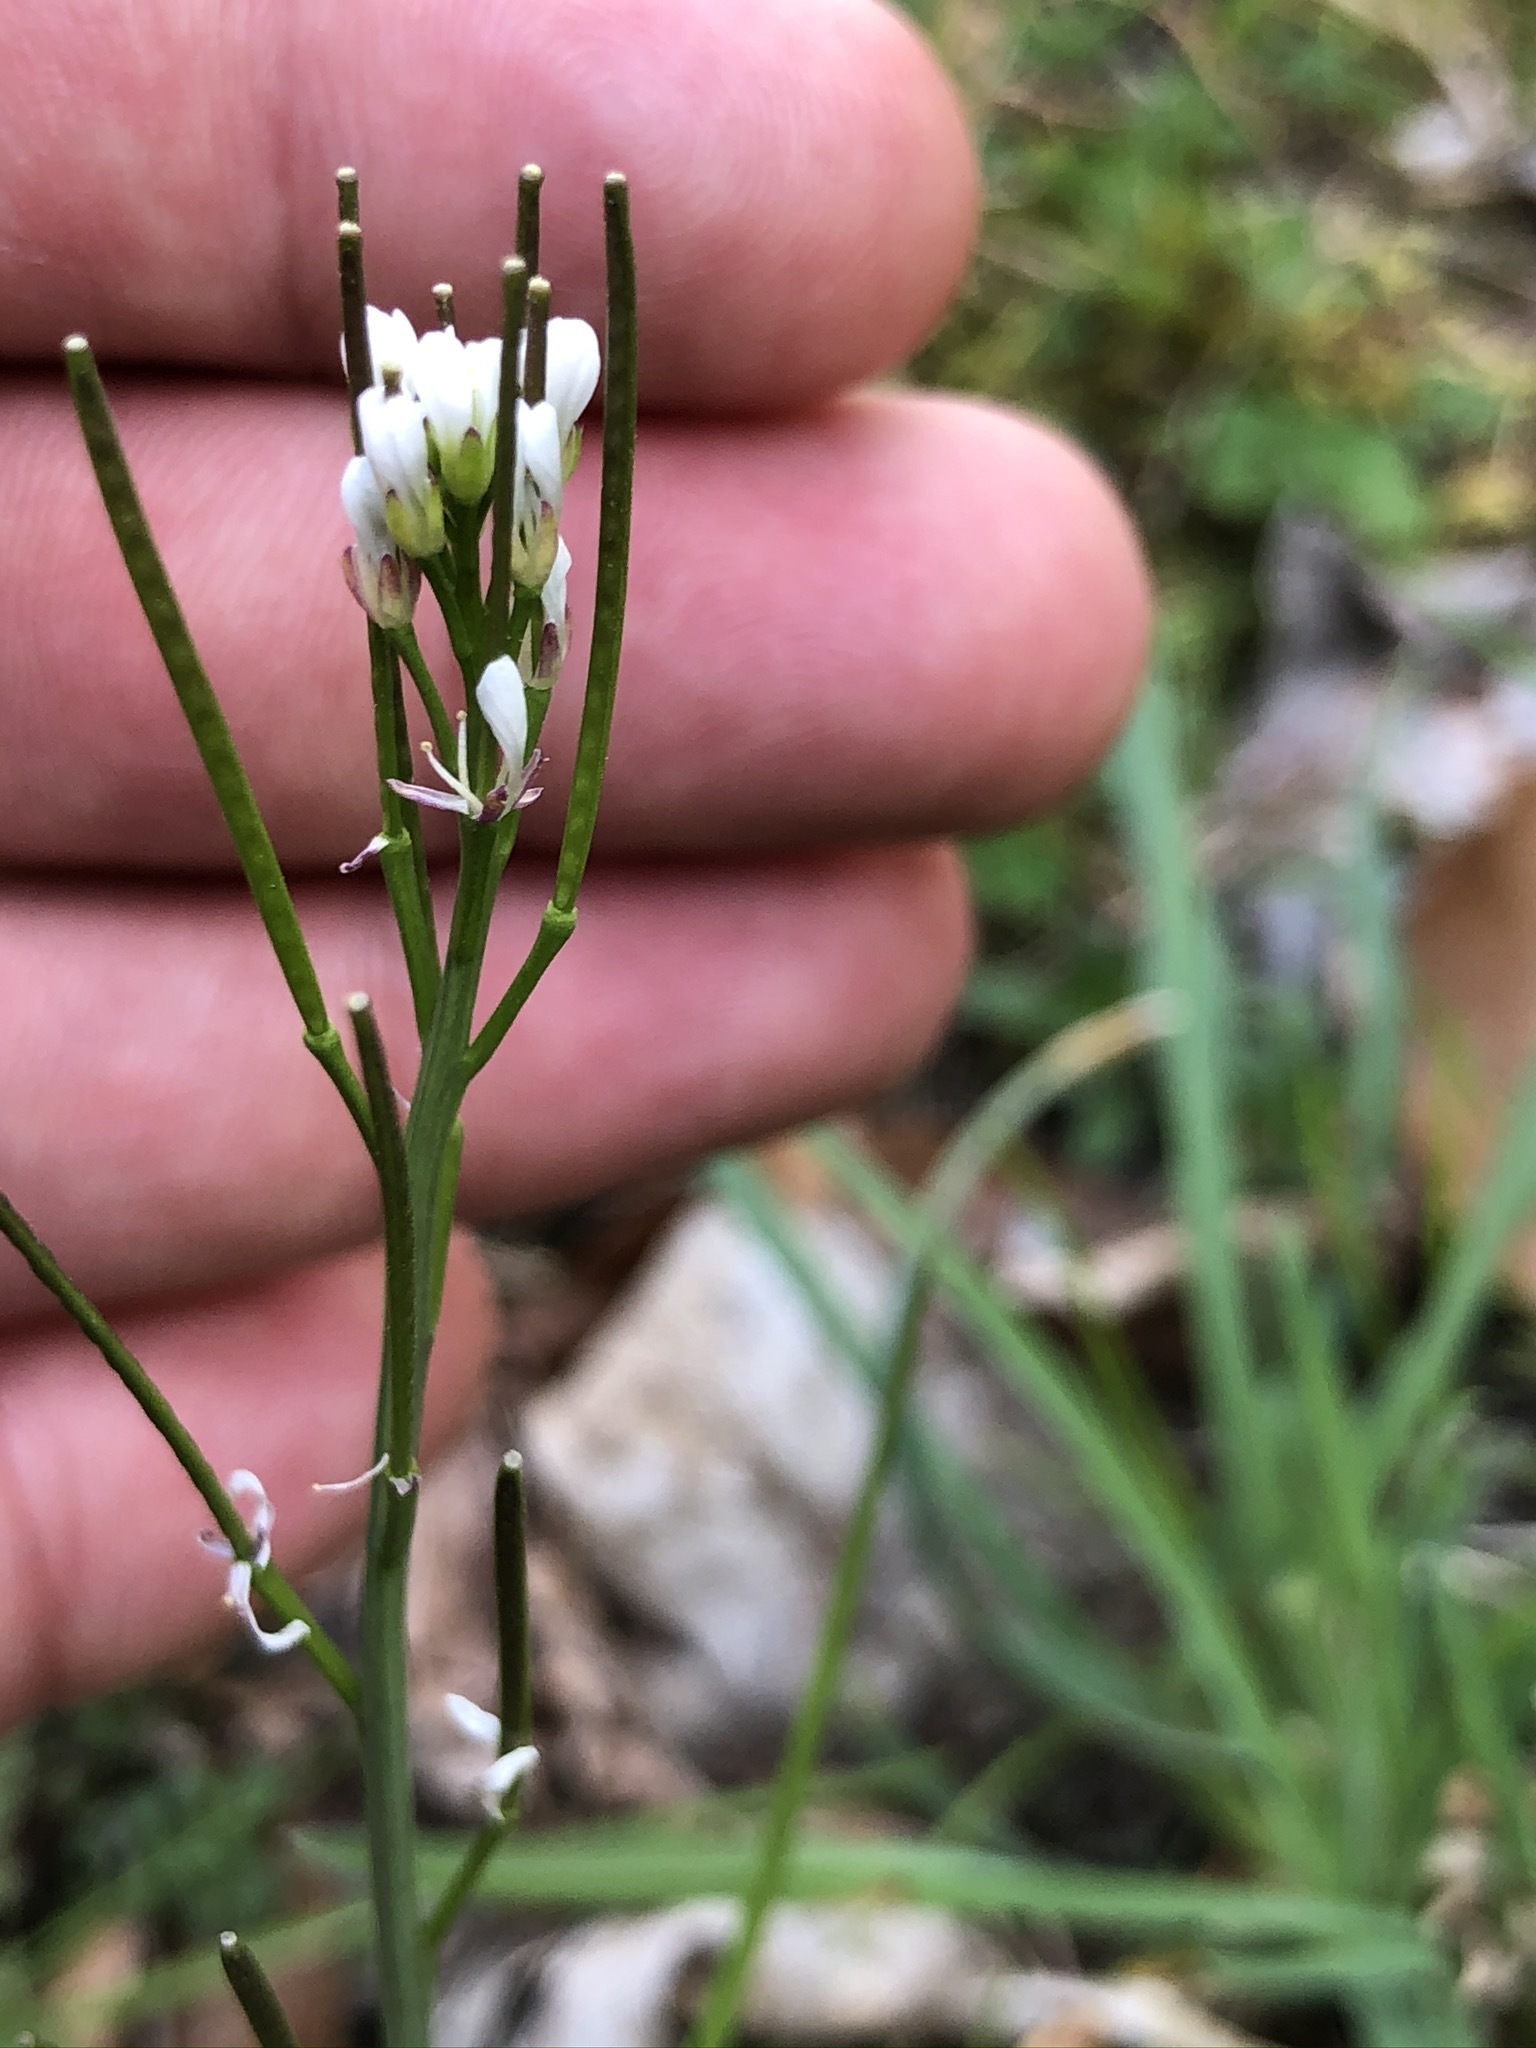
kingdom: Plantae
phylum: Tracheophyta
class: Magnoliopsida
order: Brassicales
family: Brassicaceae
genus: Cardamine
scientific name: Cardamine hirsuta
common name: Hairy bittercress
